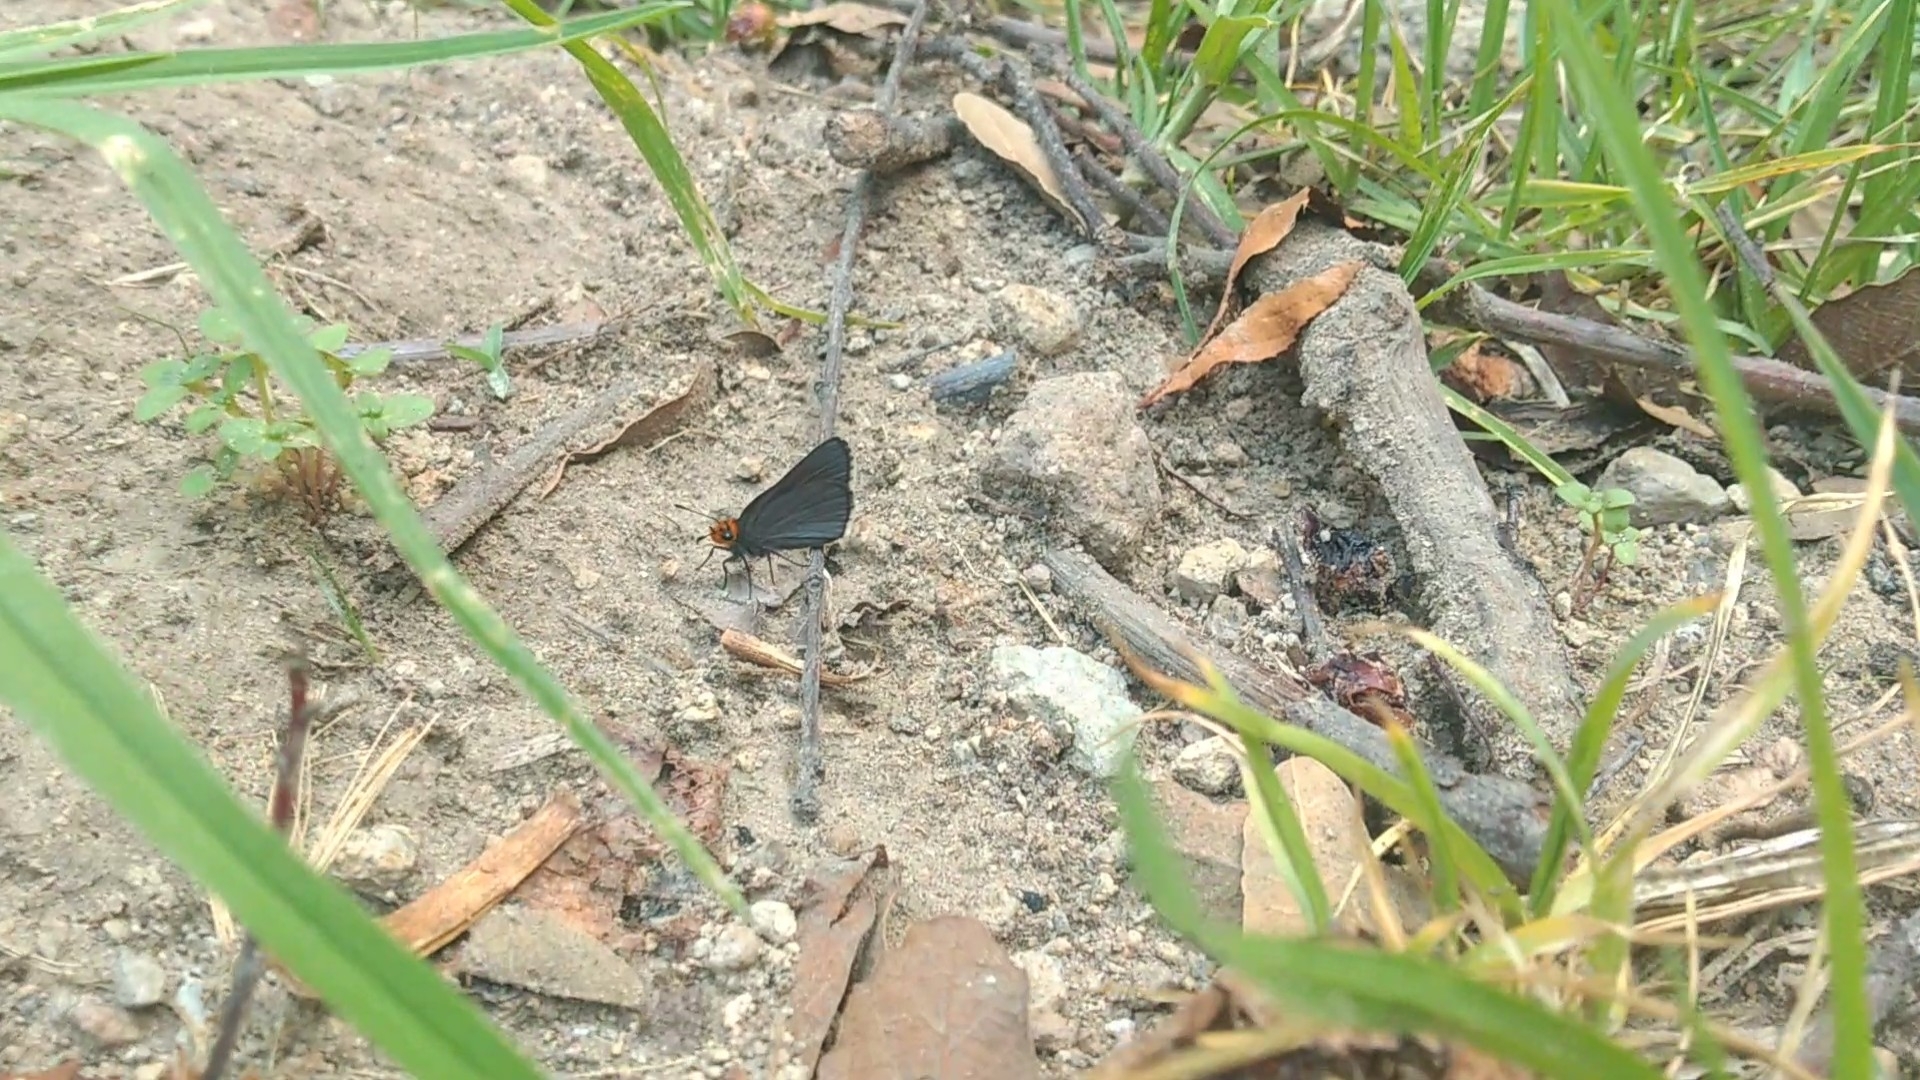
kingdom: Animalia
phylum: Arthropoda
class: Insecta
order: Lepidoptera
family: Hesperiidae
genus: Mastor
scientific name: Mastor fimbriata
